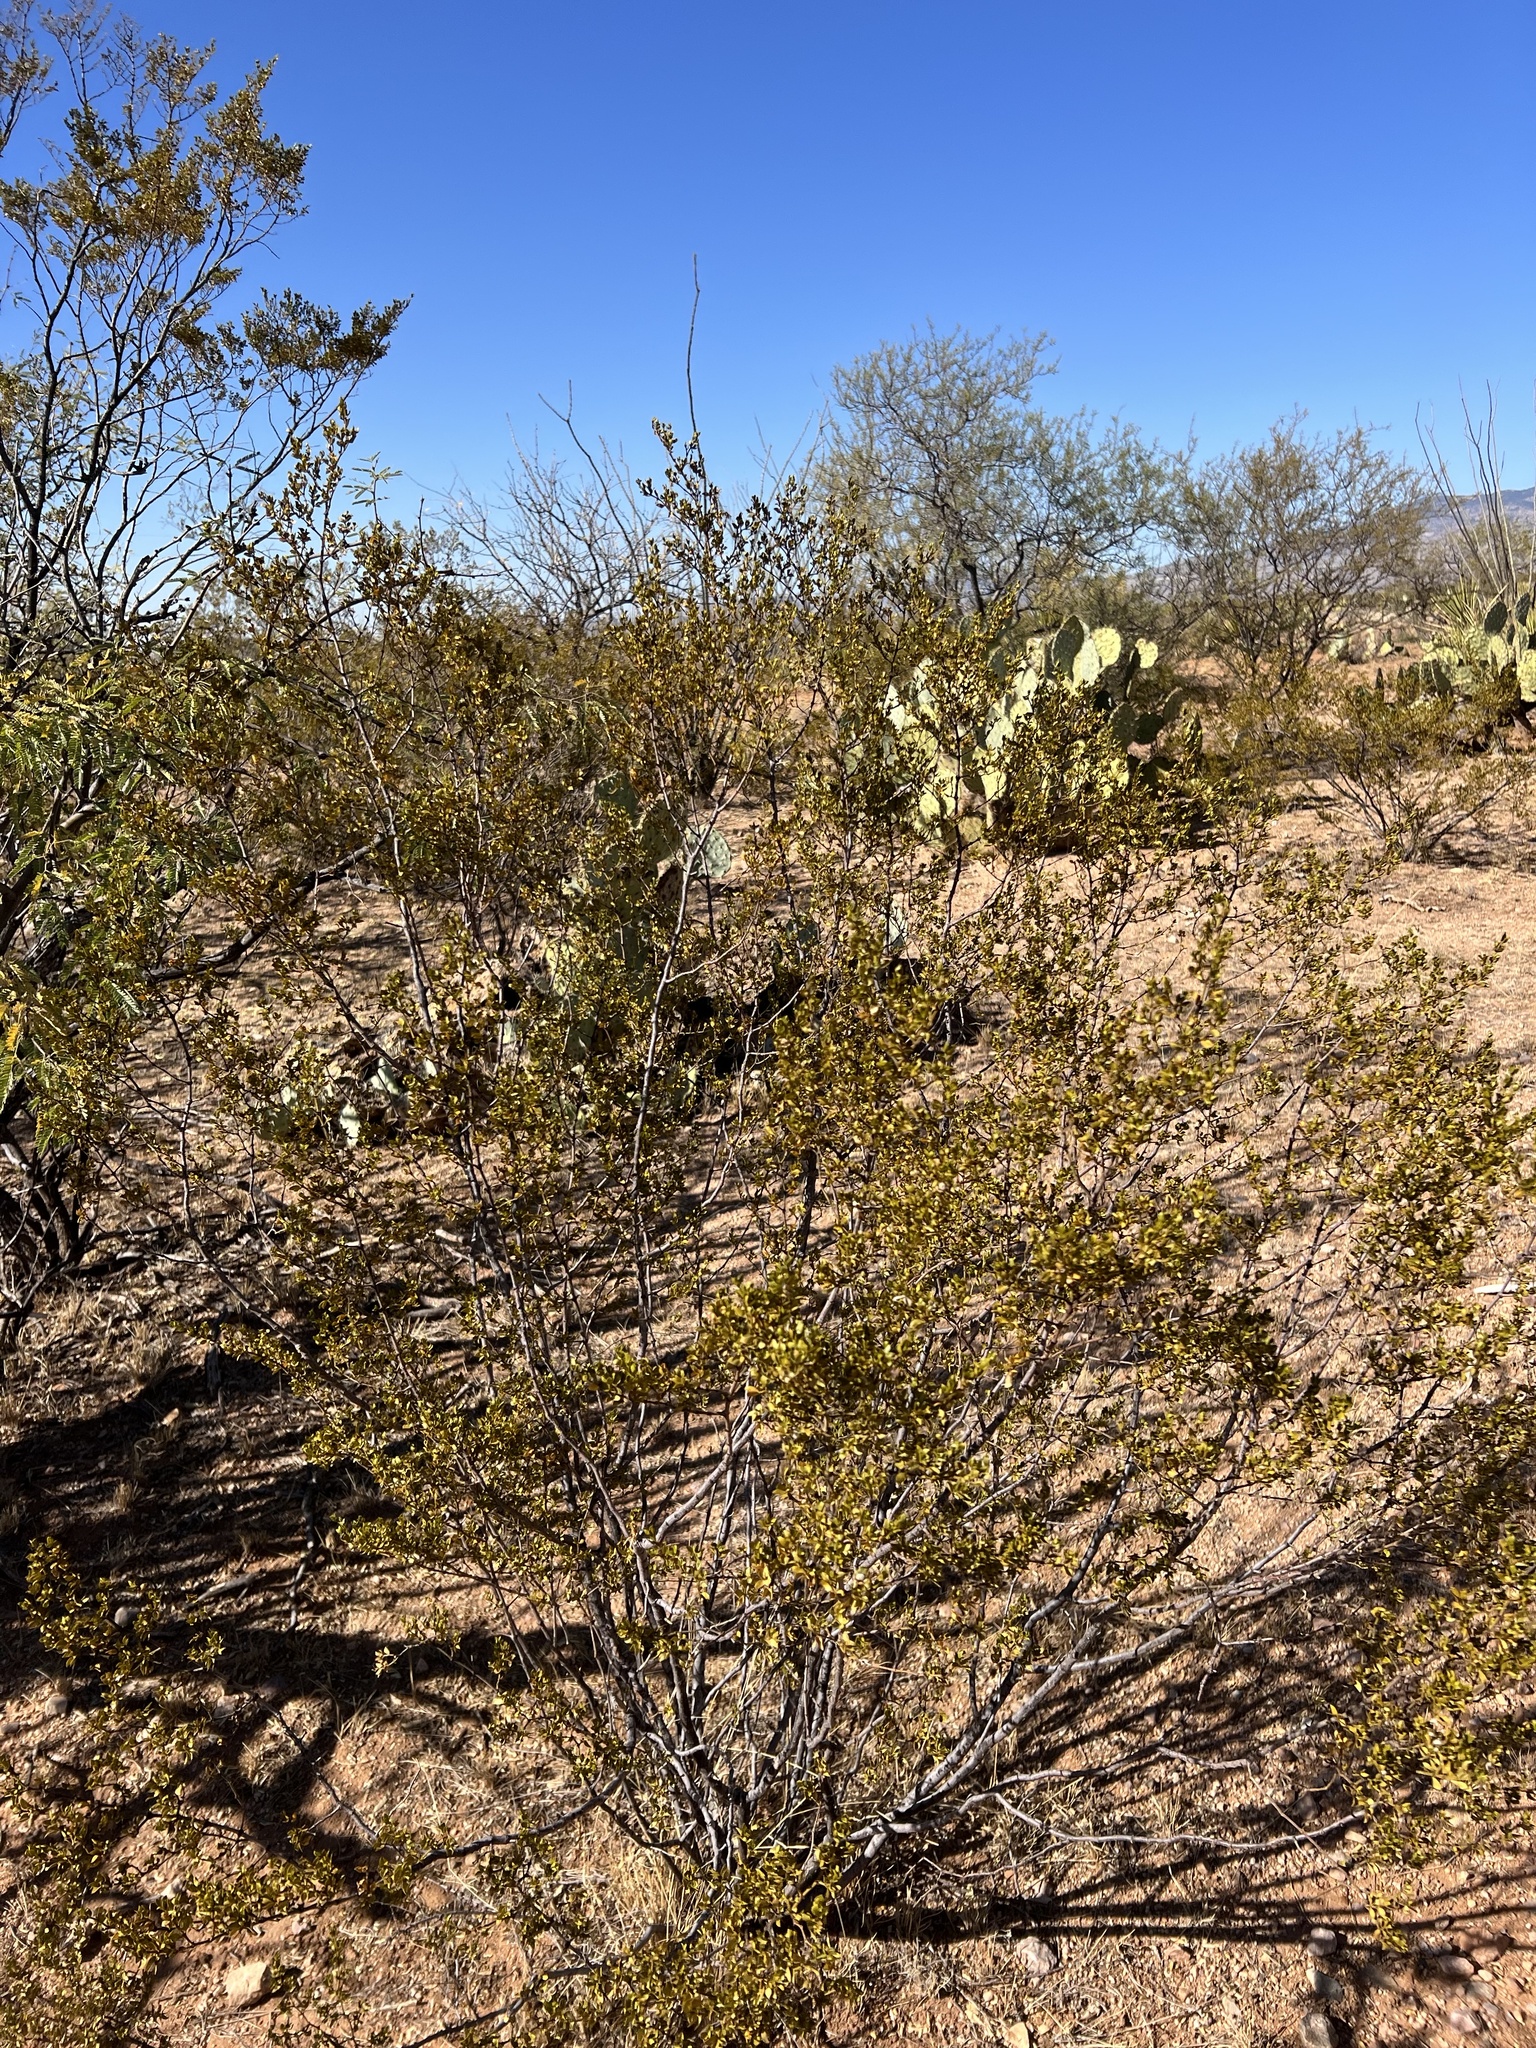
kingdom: Plantae
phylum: Tracheophyta
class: Magnoliopsida
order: Zygophyllales
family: Zygophyllaceae
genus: Larrea
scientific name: Larrea tridentata
